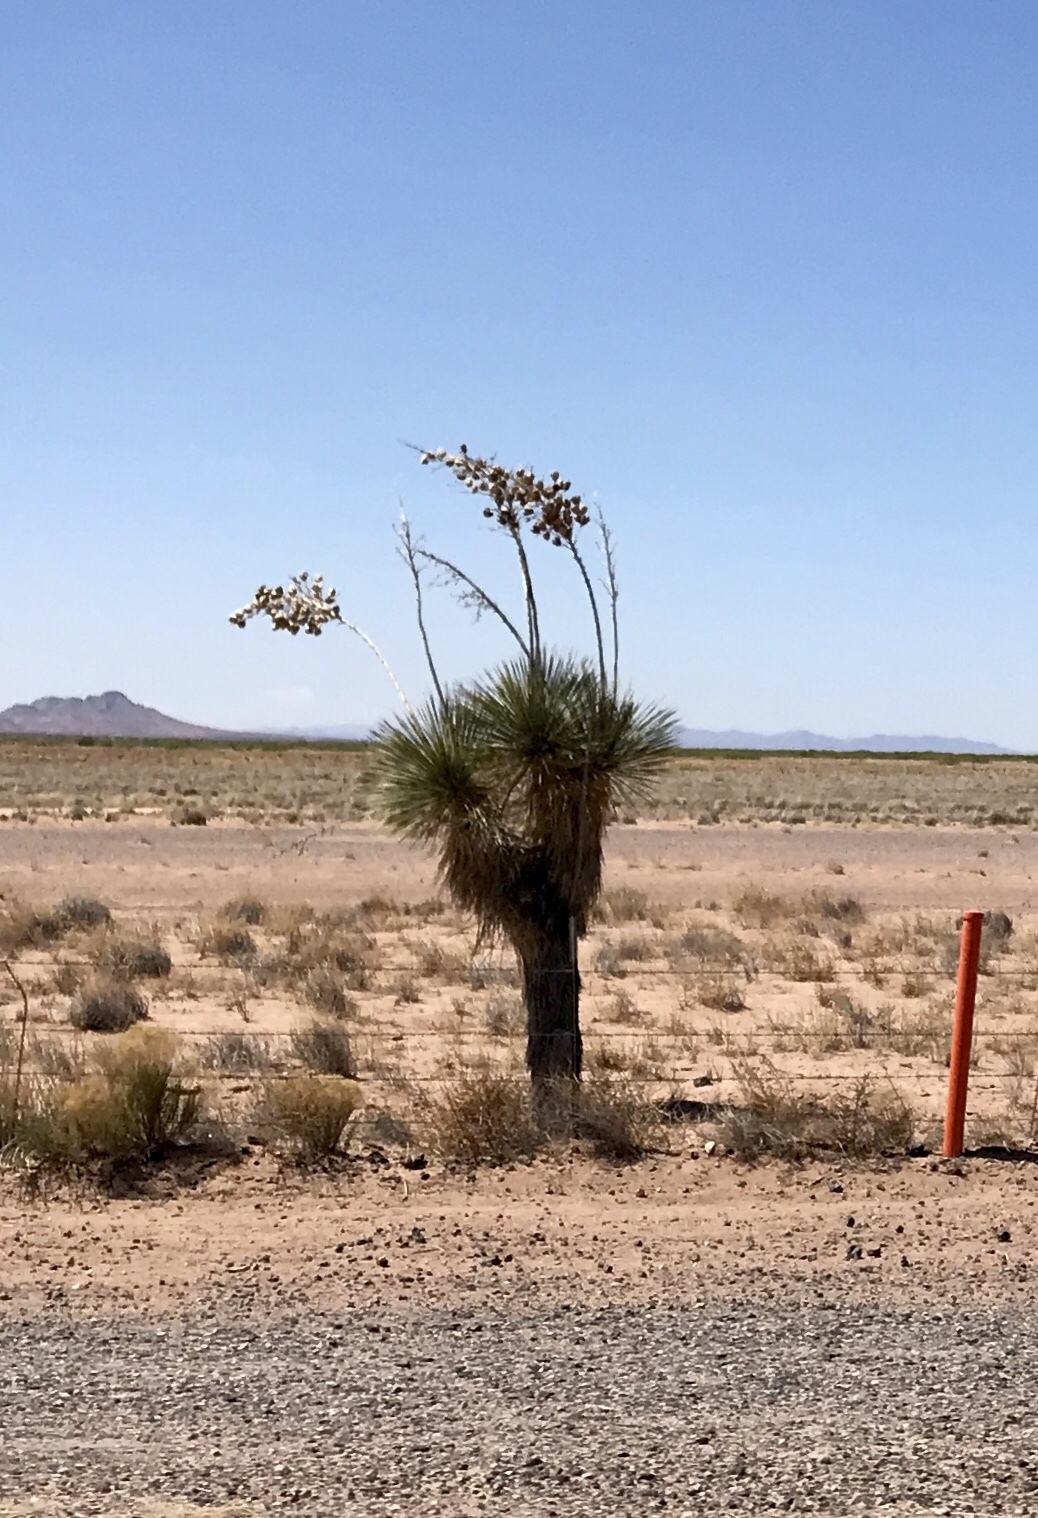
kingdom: Plantae
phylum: Tracheophyta
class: Liliopsida
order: Asparagales
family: Asparagaceae
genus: Yucca
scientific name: Yucca elata
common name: Palmella
